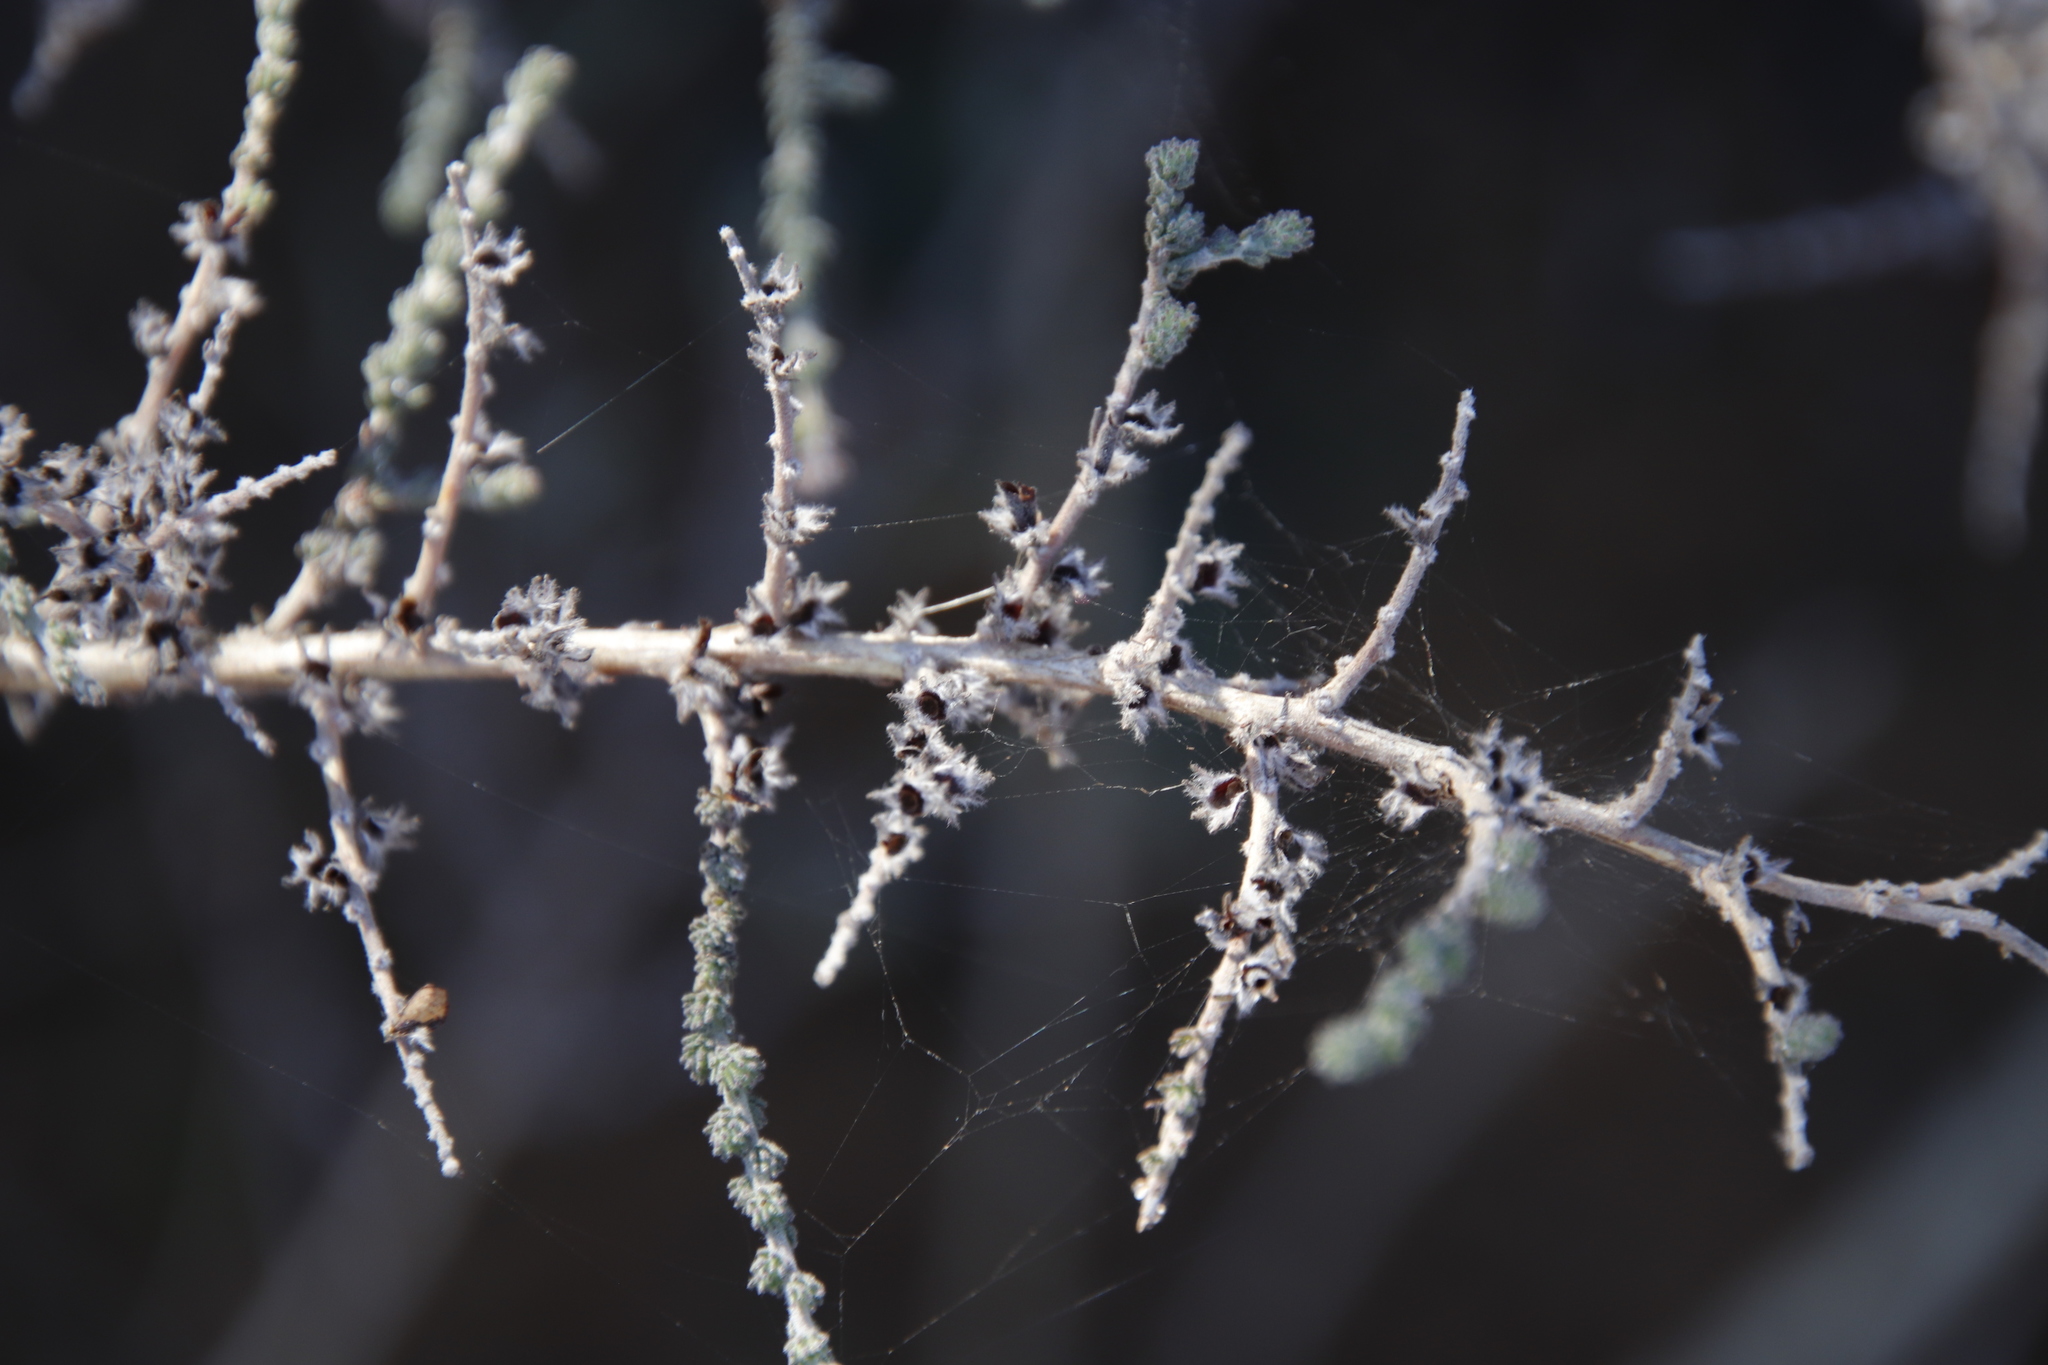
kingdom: Plantae
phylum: Tracheophyta
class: Magnoliopsida
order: Fabales
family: Fabaceae
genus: Aspalathus
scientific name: Aspalathus hispida
